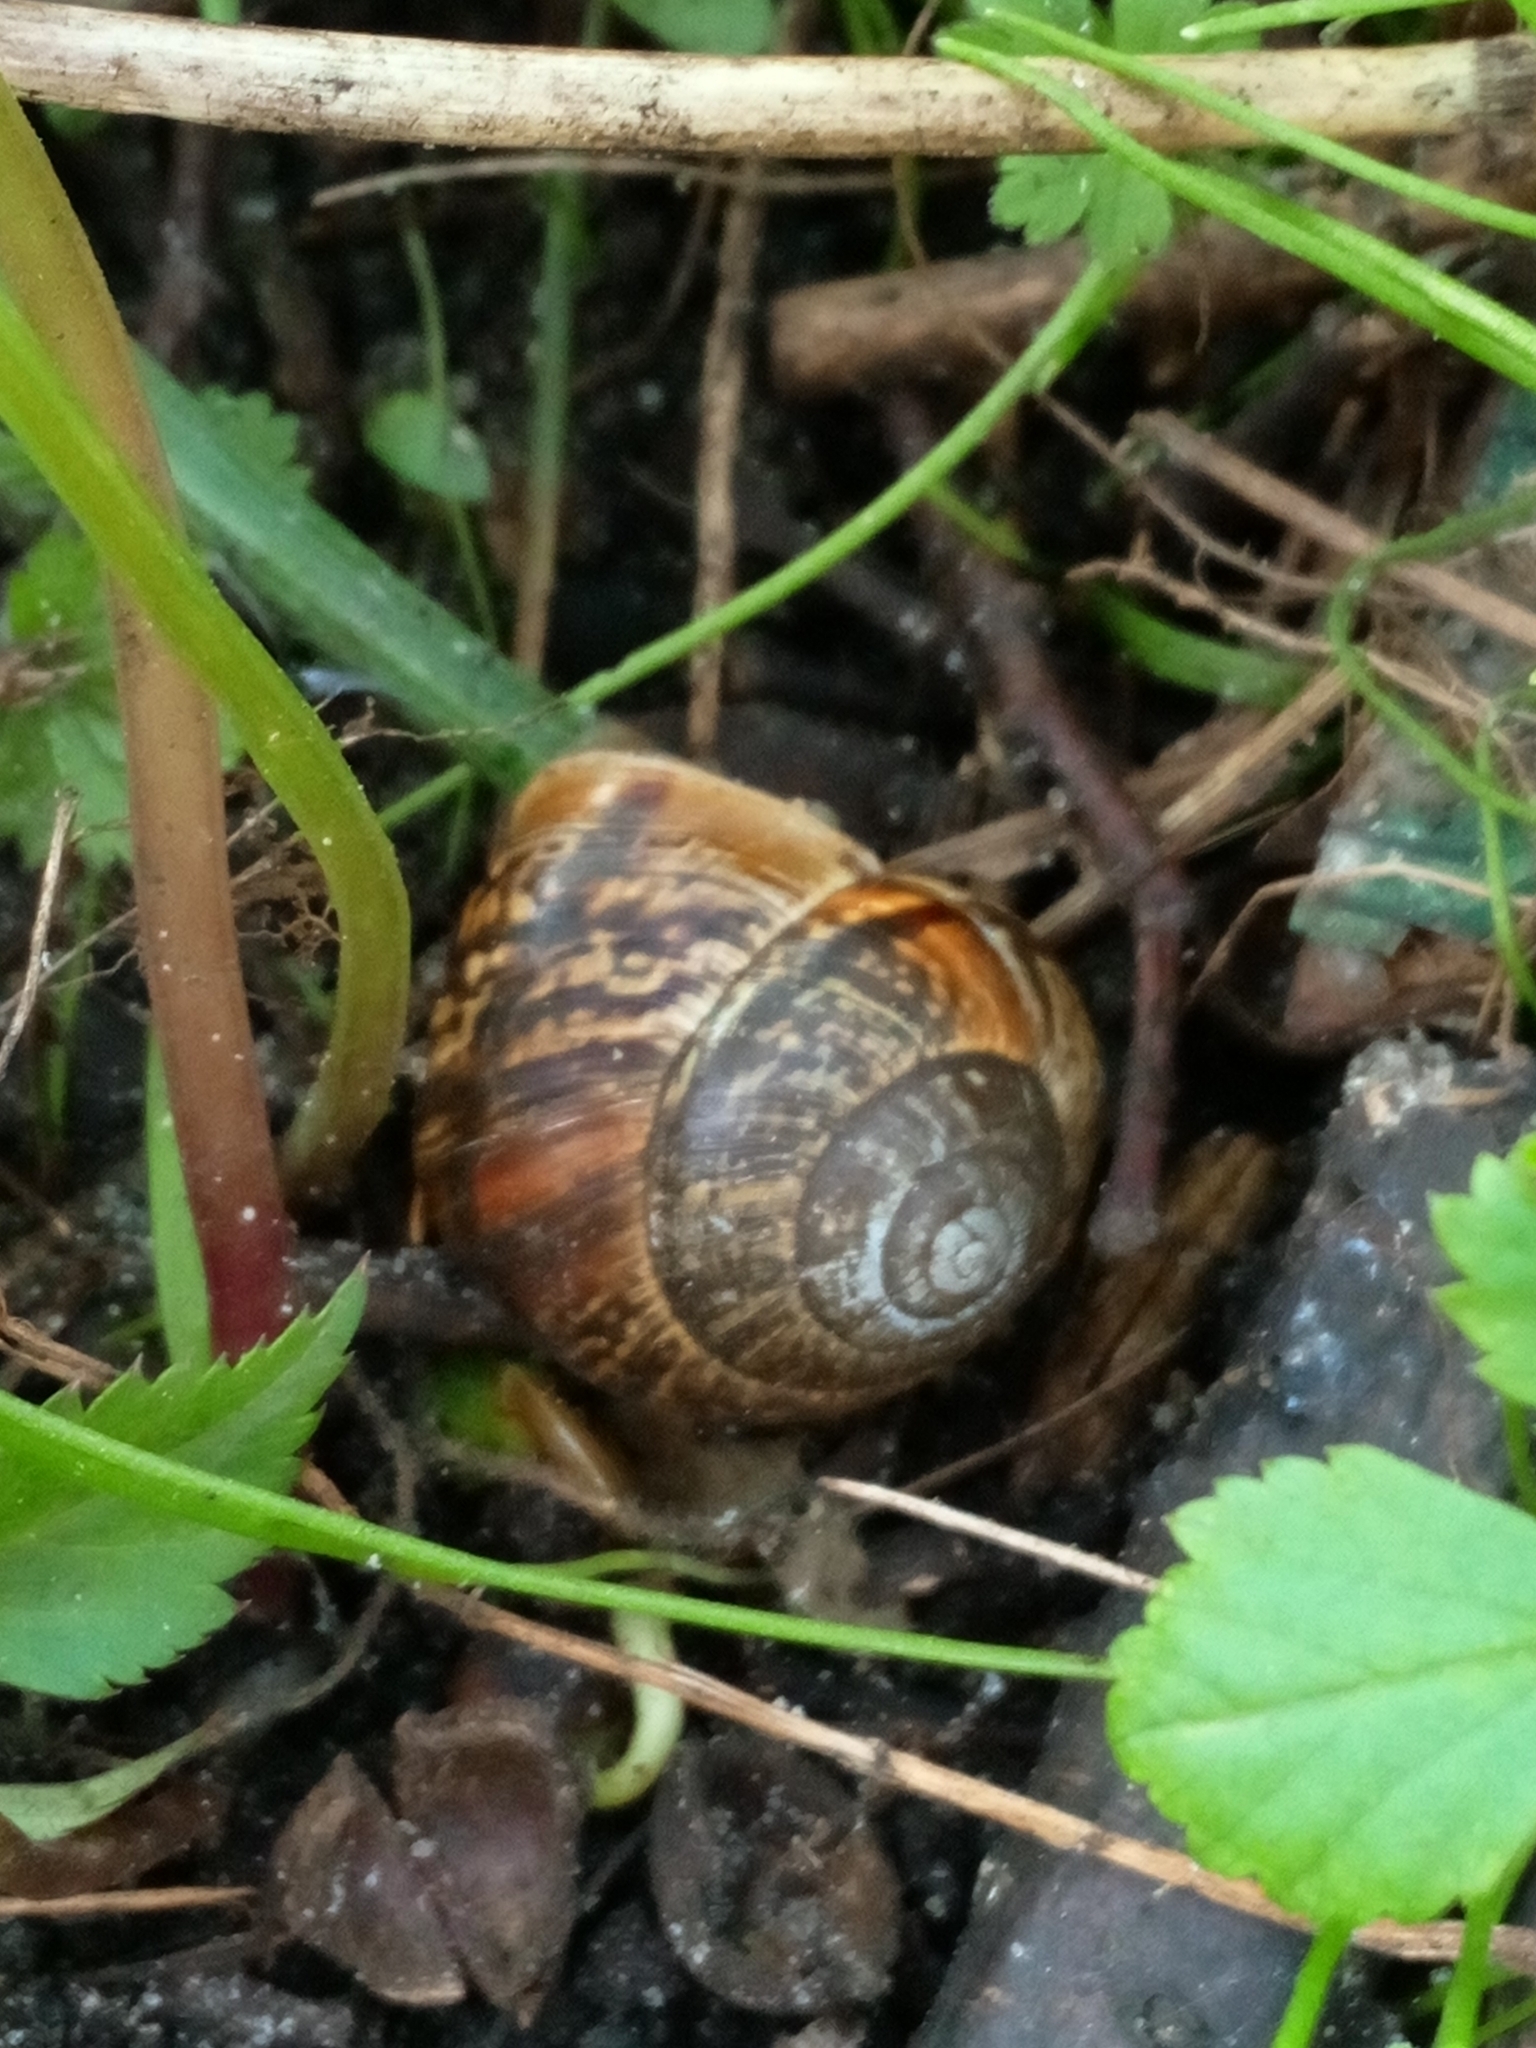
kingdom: Animalia
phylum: Mollusca
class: Gastropoda
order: Stylommatophora
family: Helicidae
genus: Arianta
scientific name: Arianta arbustorum
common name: Copse snail
